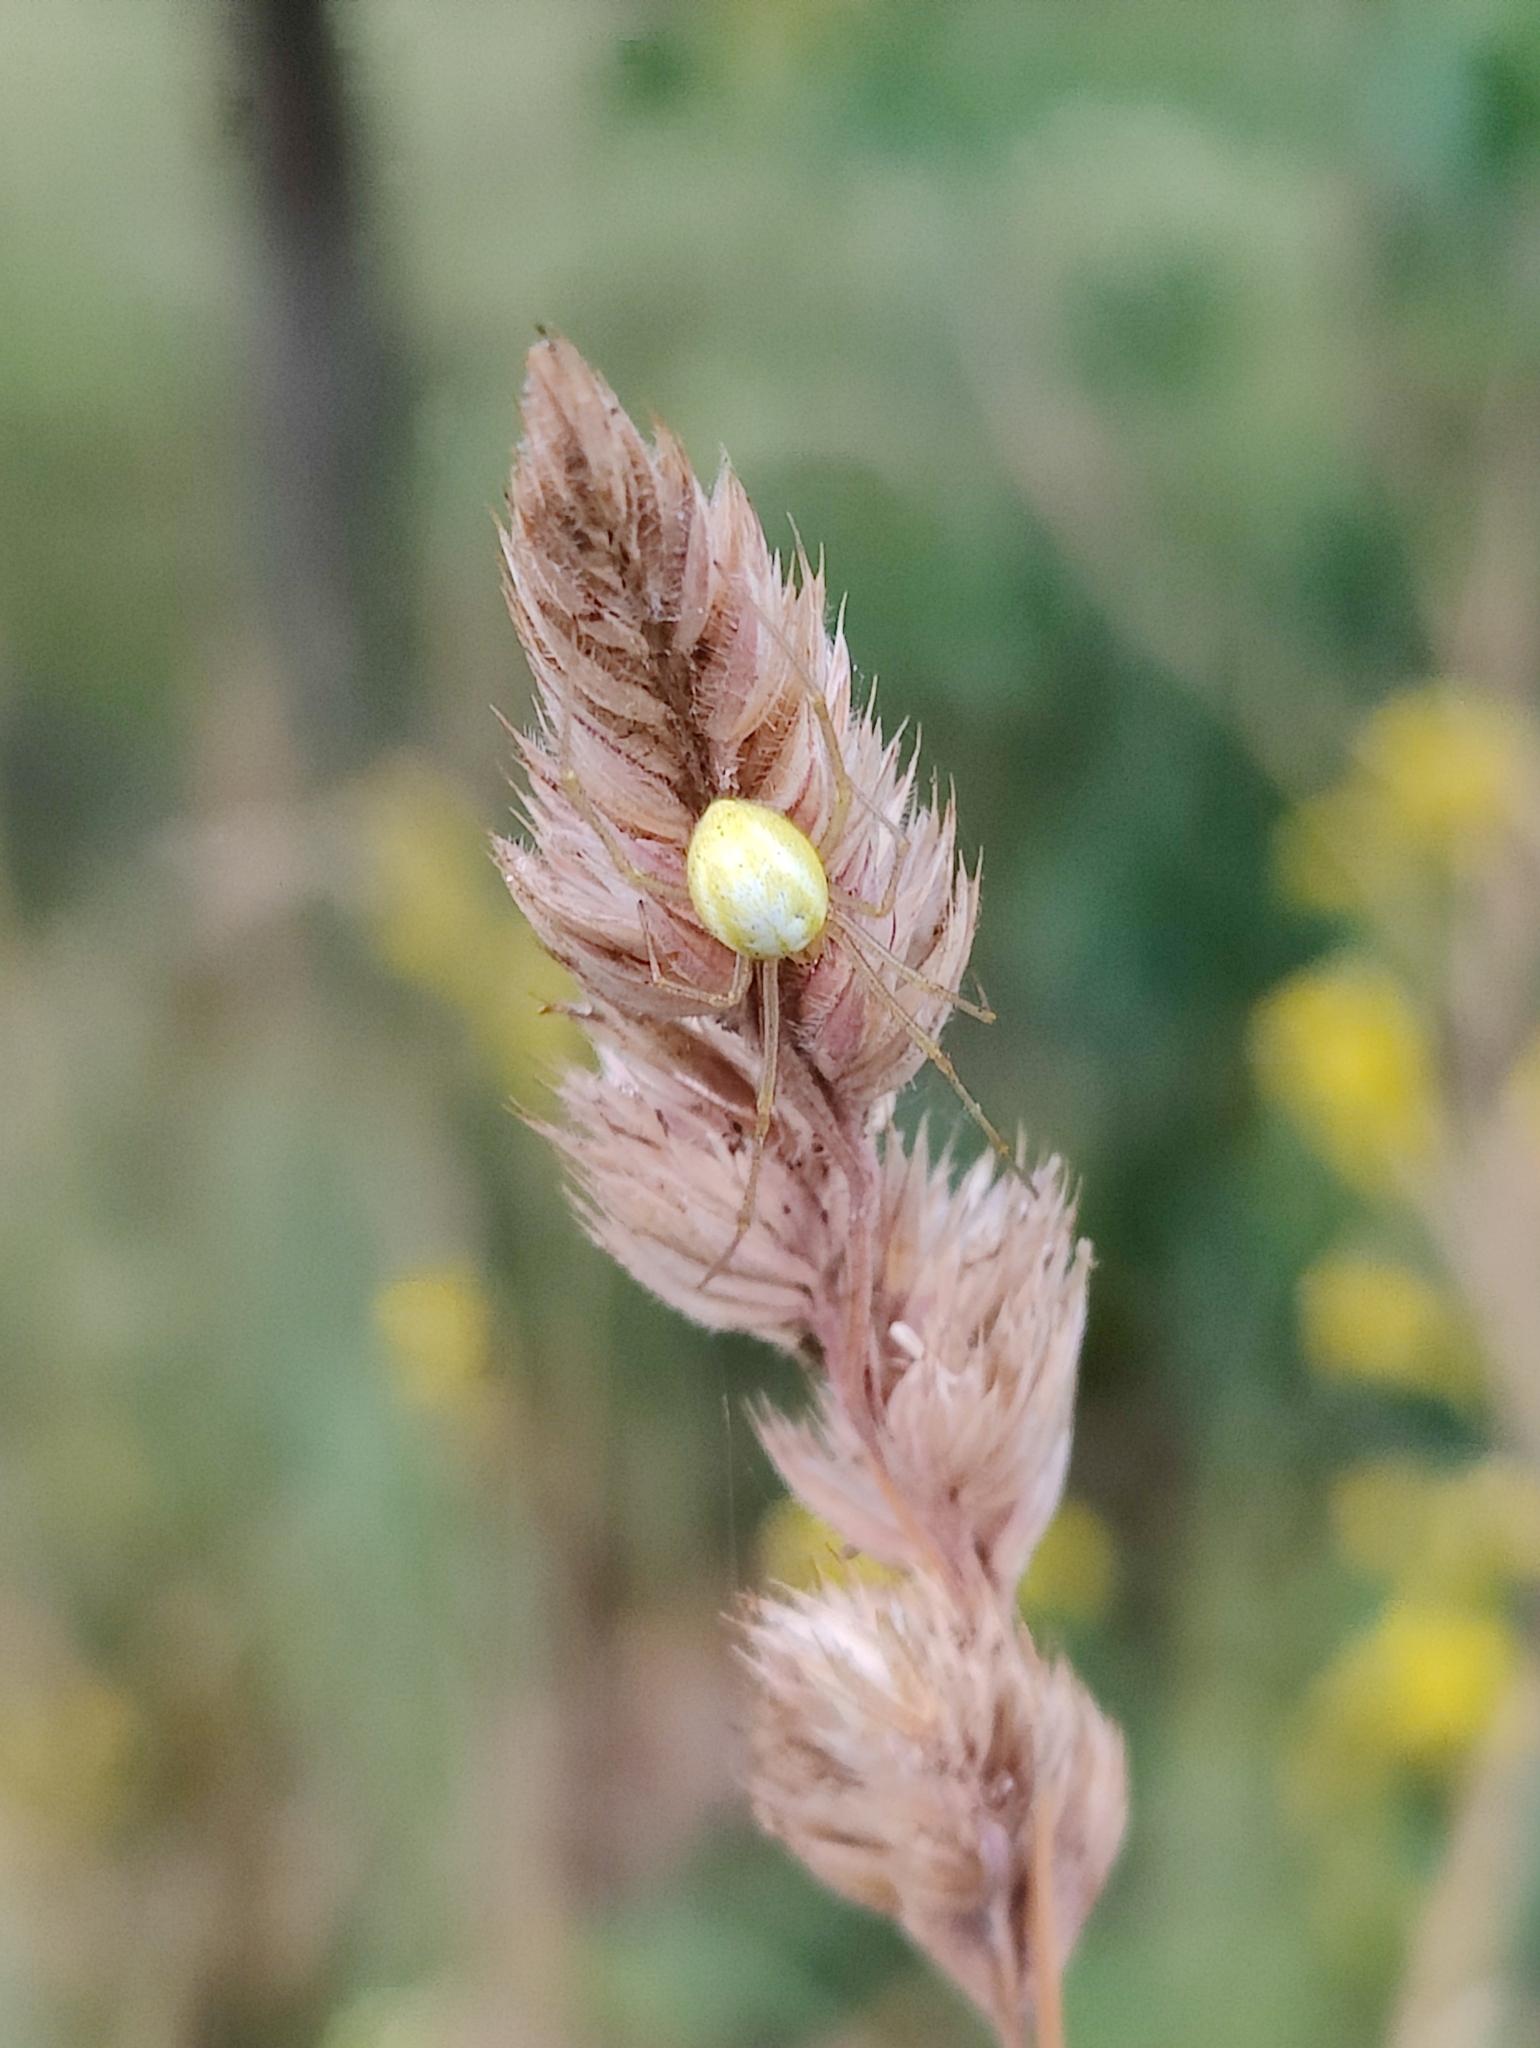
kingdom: Animalia
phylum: Arthropoda
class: Arachnida
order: Araneae
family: Theridiidae
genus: Enoplognatha
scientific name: Enoplognatha ovata
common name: Common candy-striped spider
